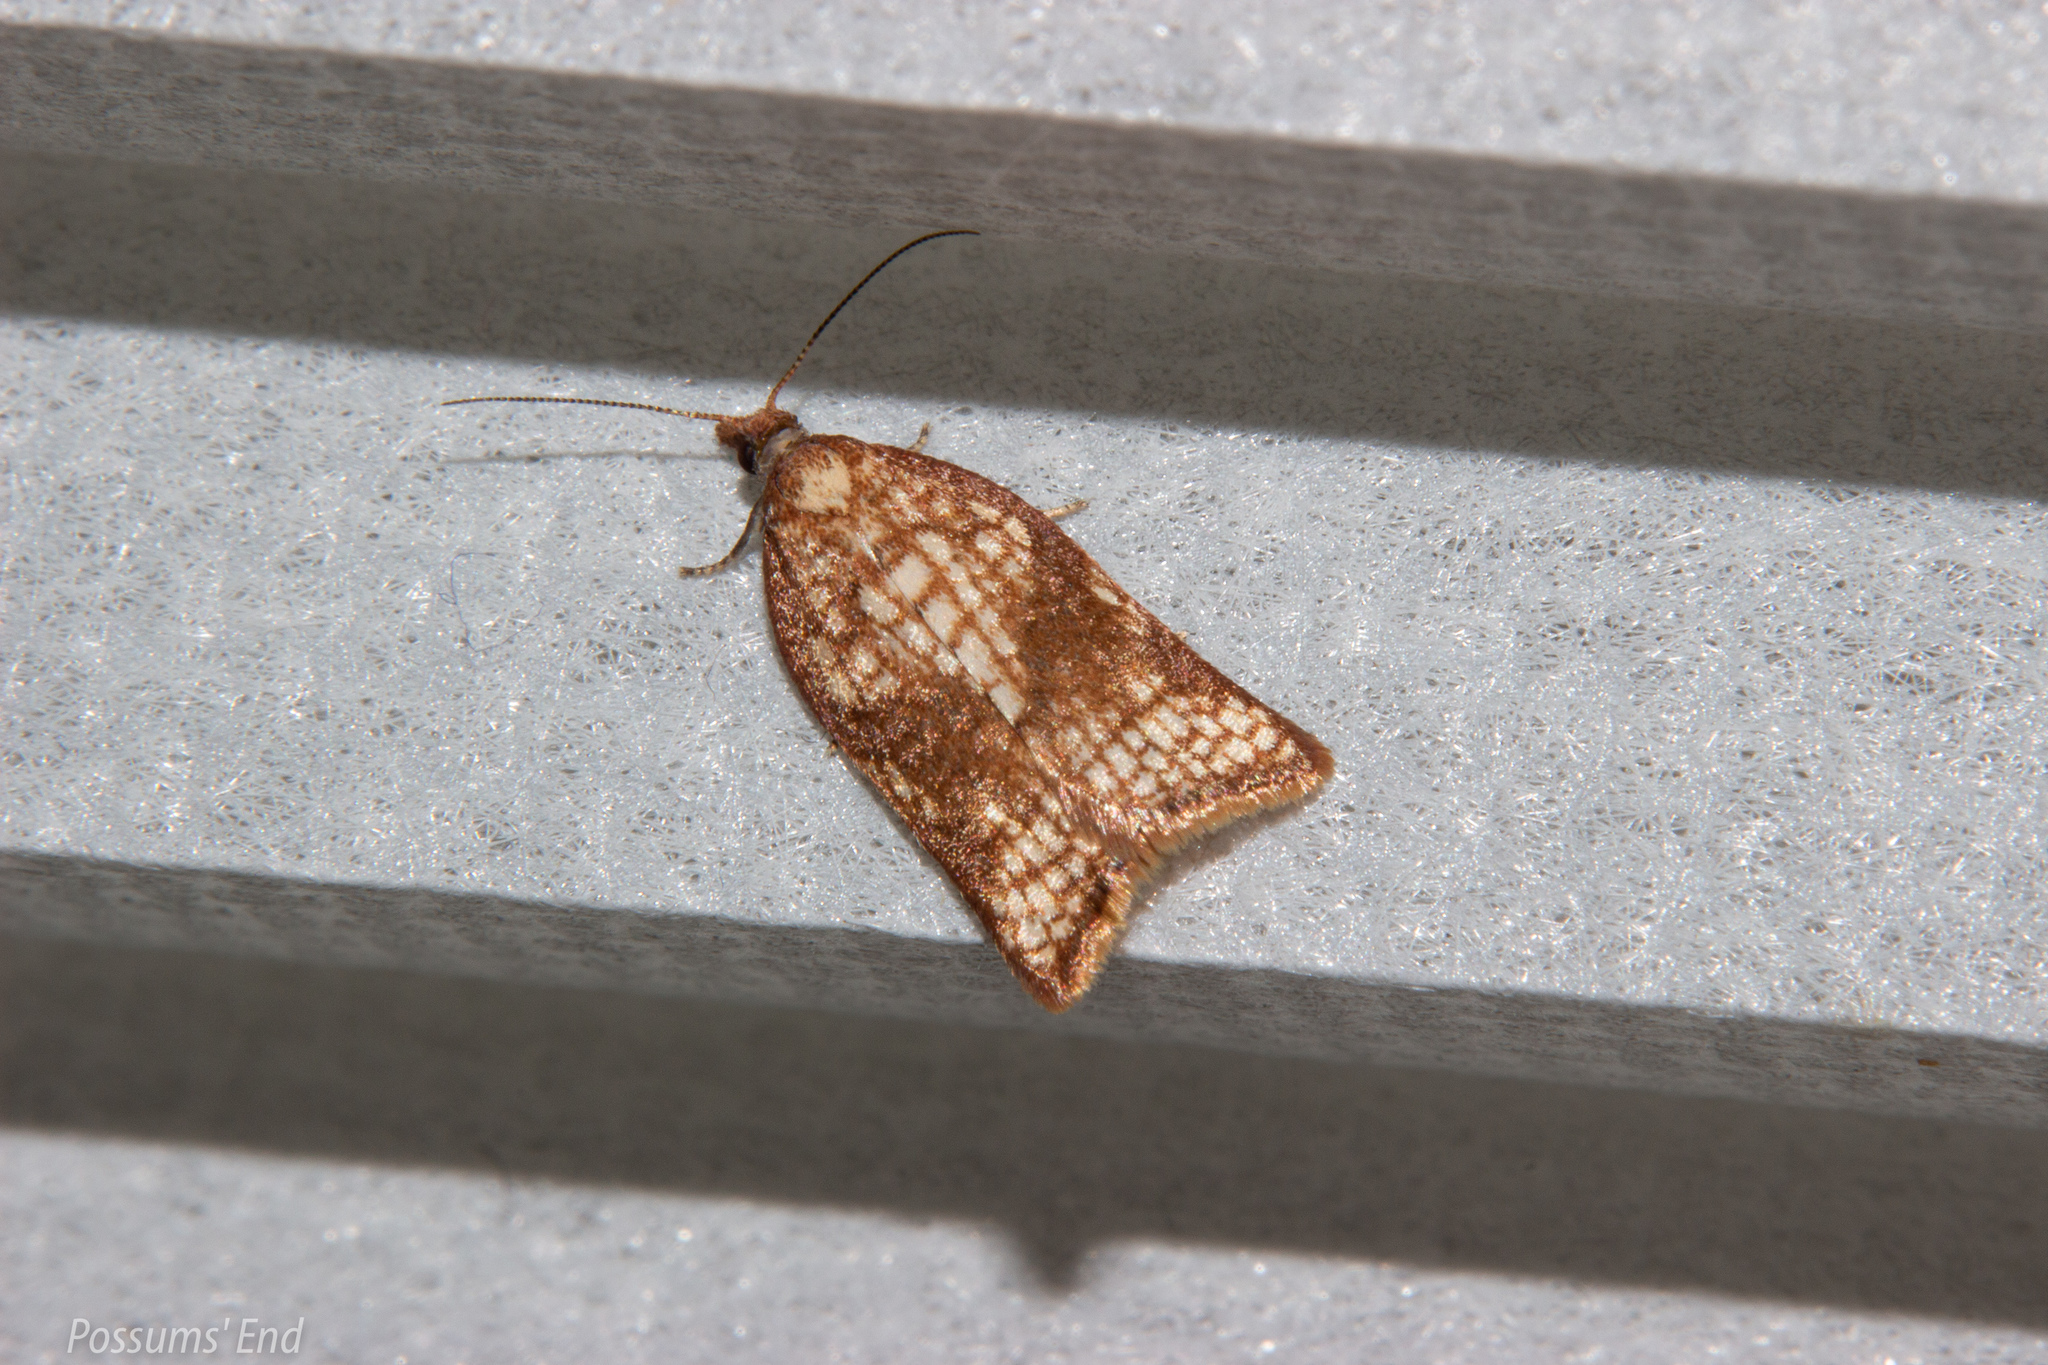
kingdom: Animalia
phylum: Arthropoda
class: Insecta
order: Lepidoptera
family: Tortricidae
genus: Catamacta
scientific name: Catamacta gavisana
